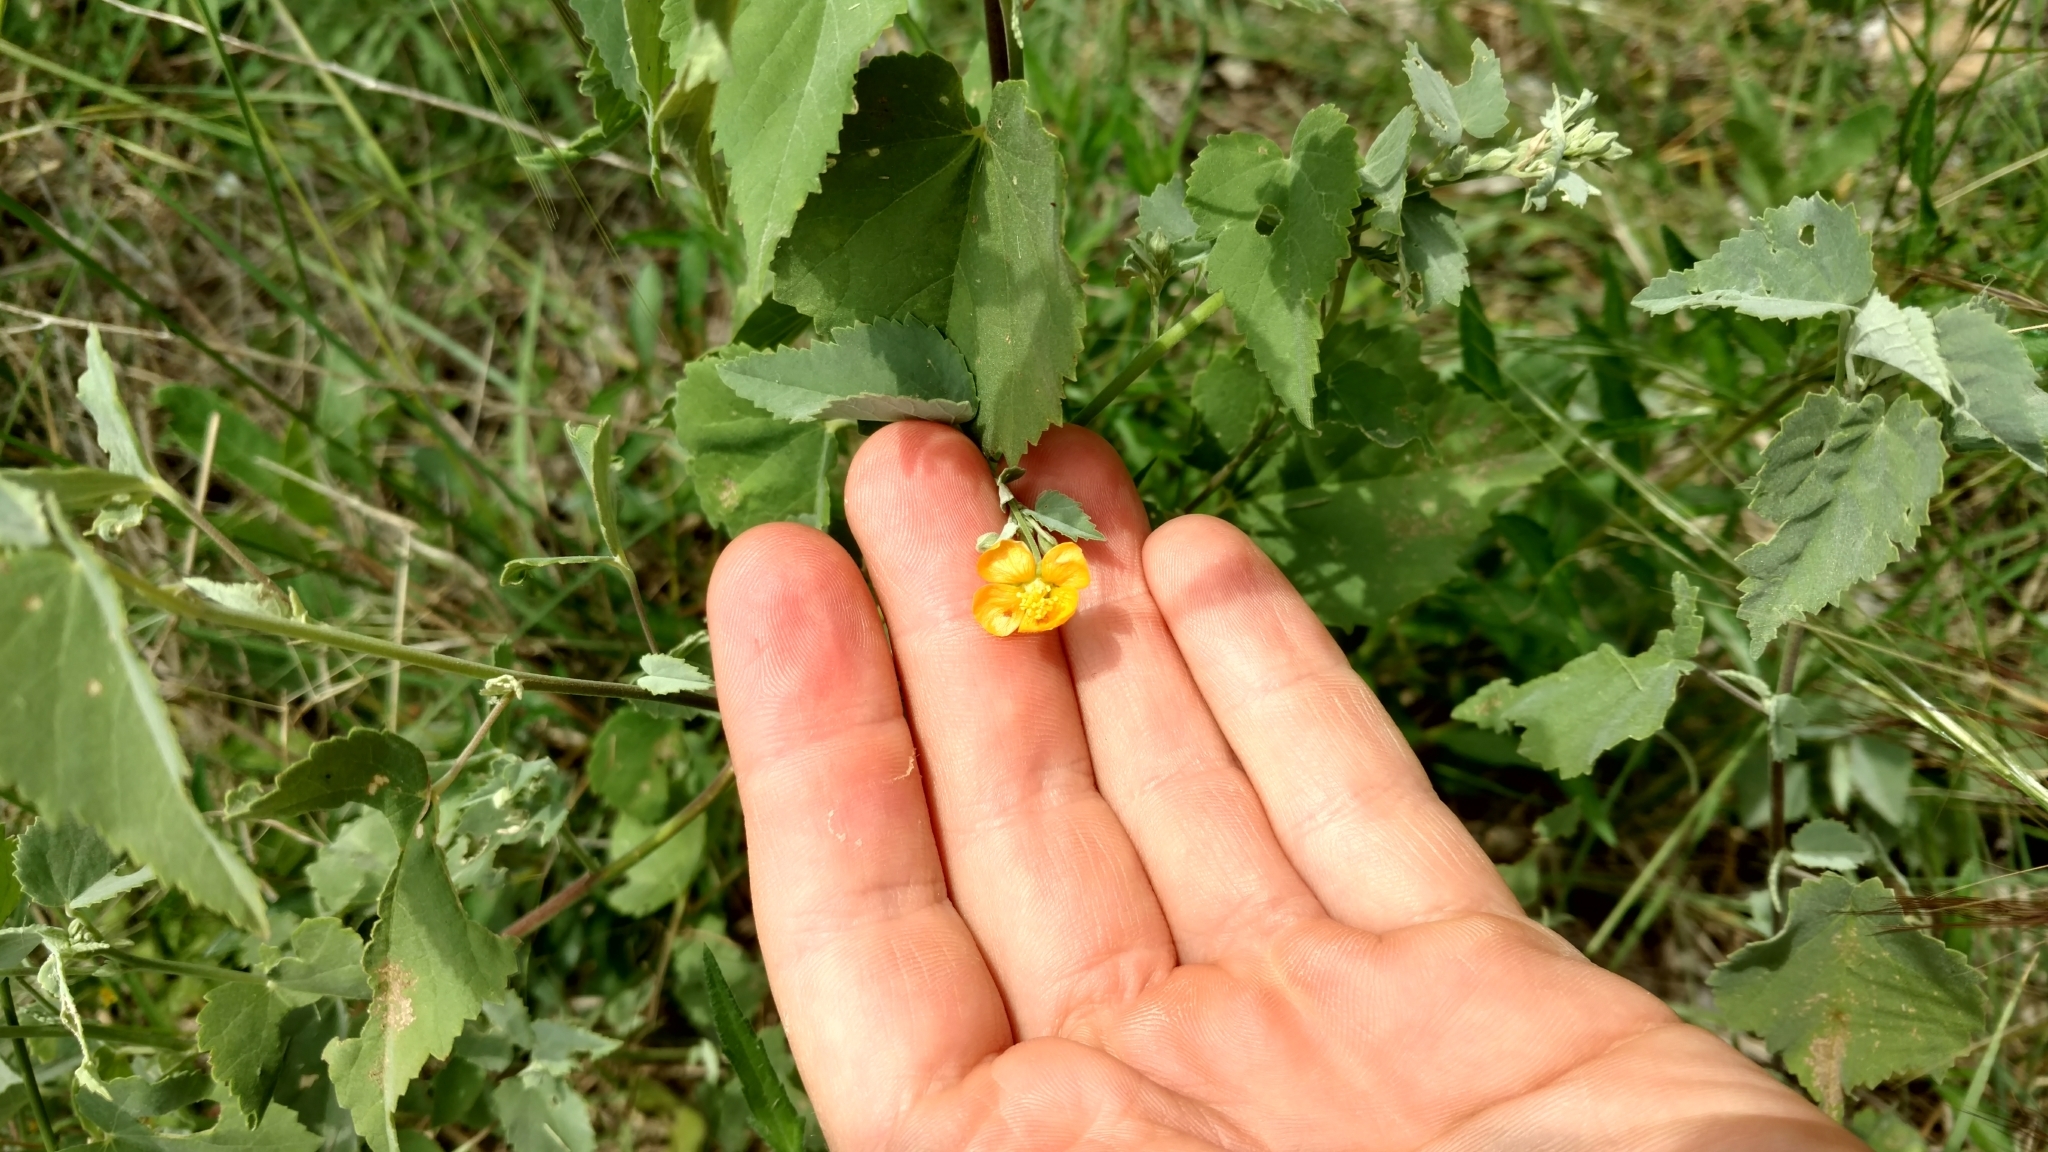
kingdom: Plantae
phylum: Tracheophyta
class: Magnoliopsida
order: Malvales
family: Malvaceae
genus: Abutilon
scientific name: Abutilon fruticosum
